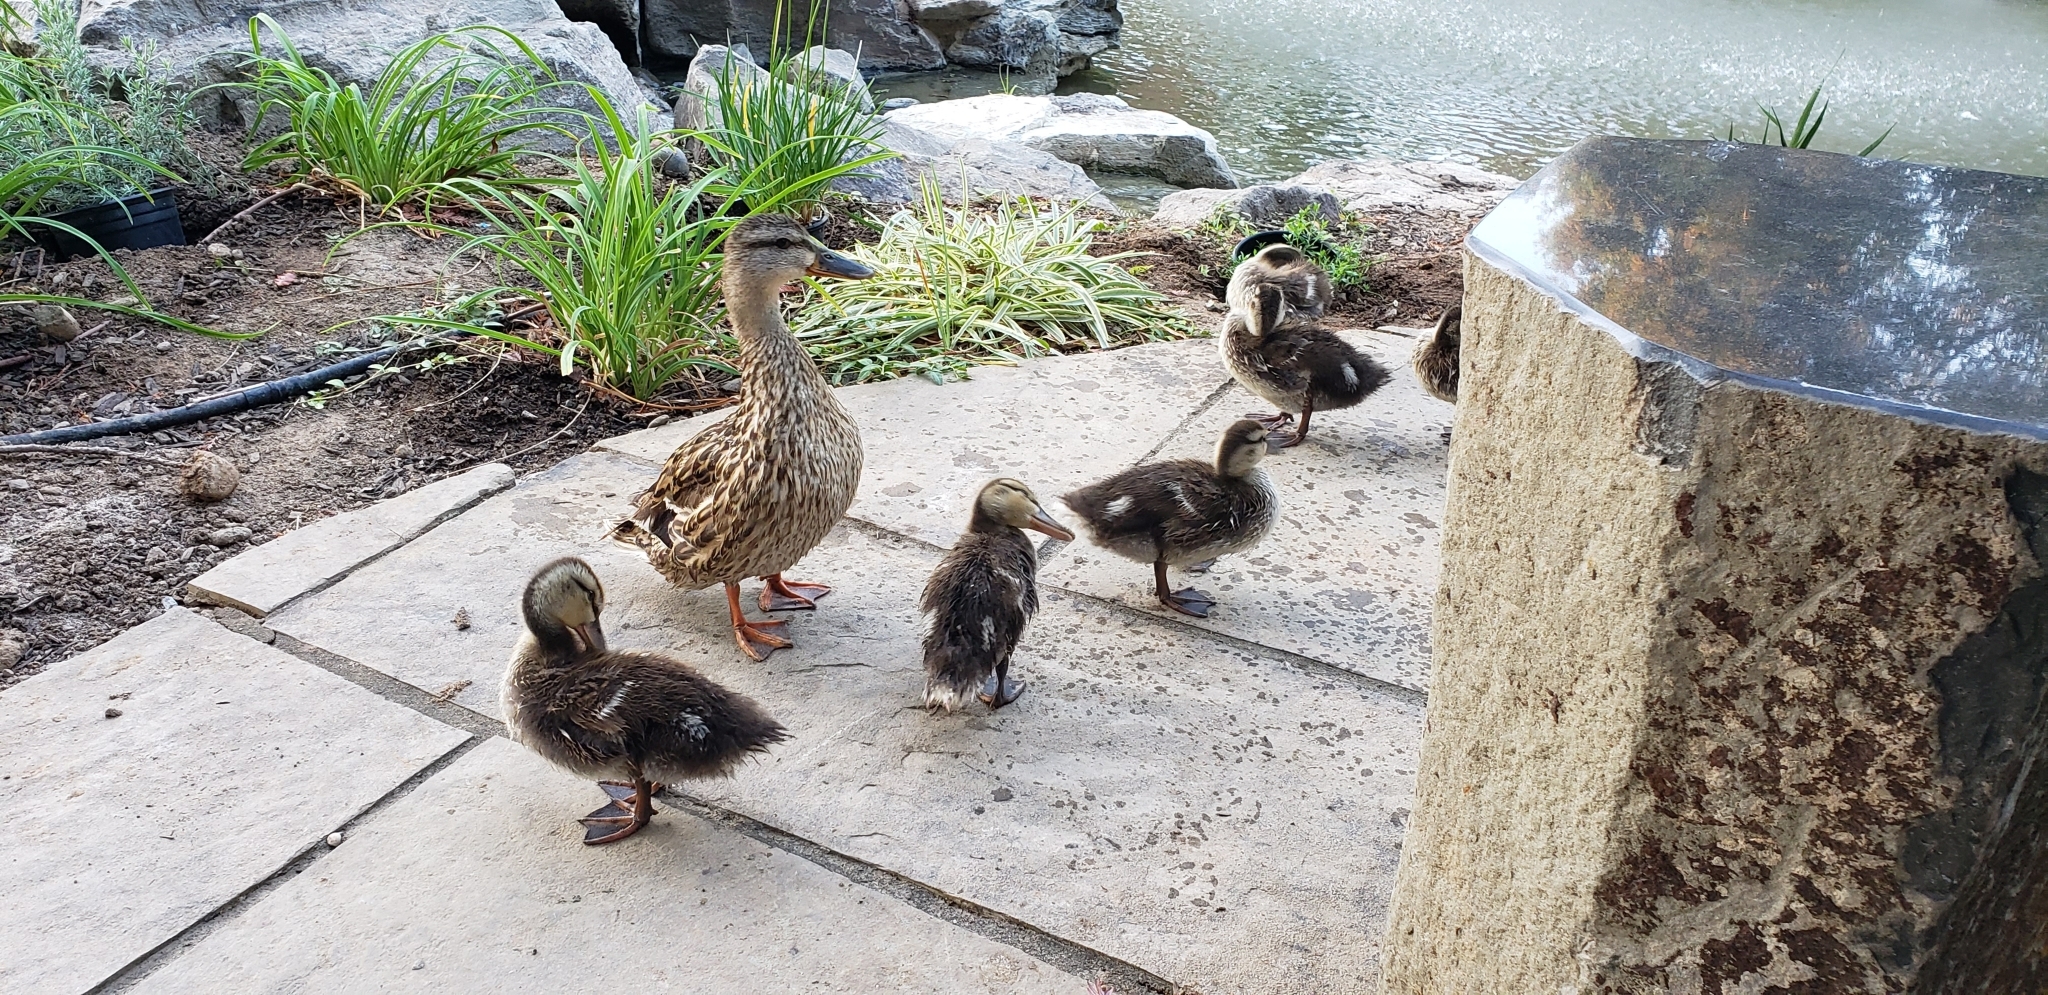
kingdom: Animalia
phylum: Chordata
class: Aves
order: Anseriformes
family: Anatidae
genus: Anas
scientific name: Anas platyrhynchos
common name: Mallard
